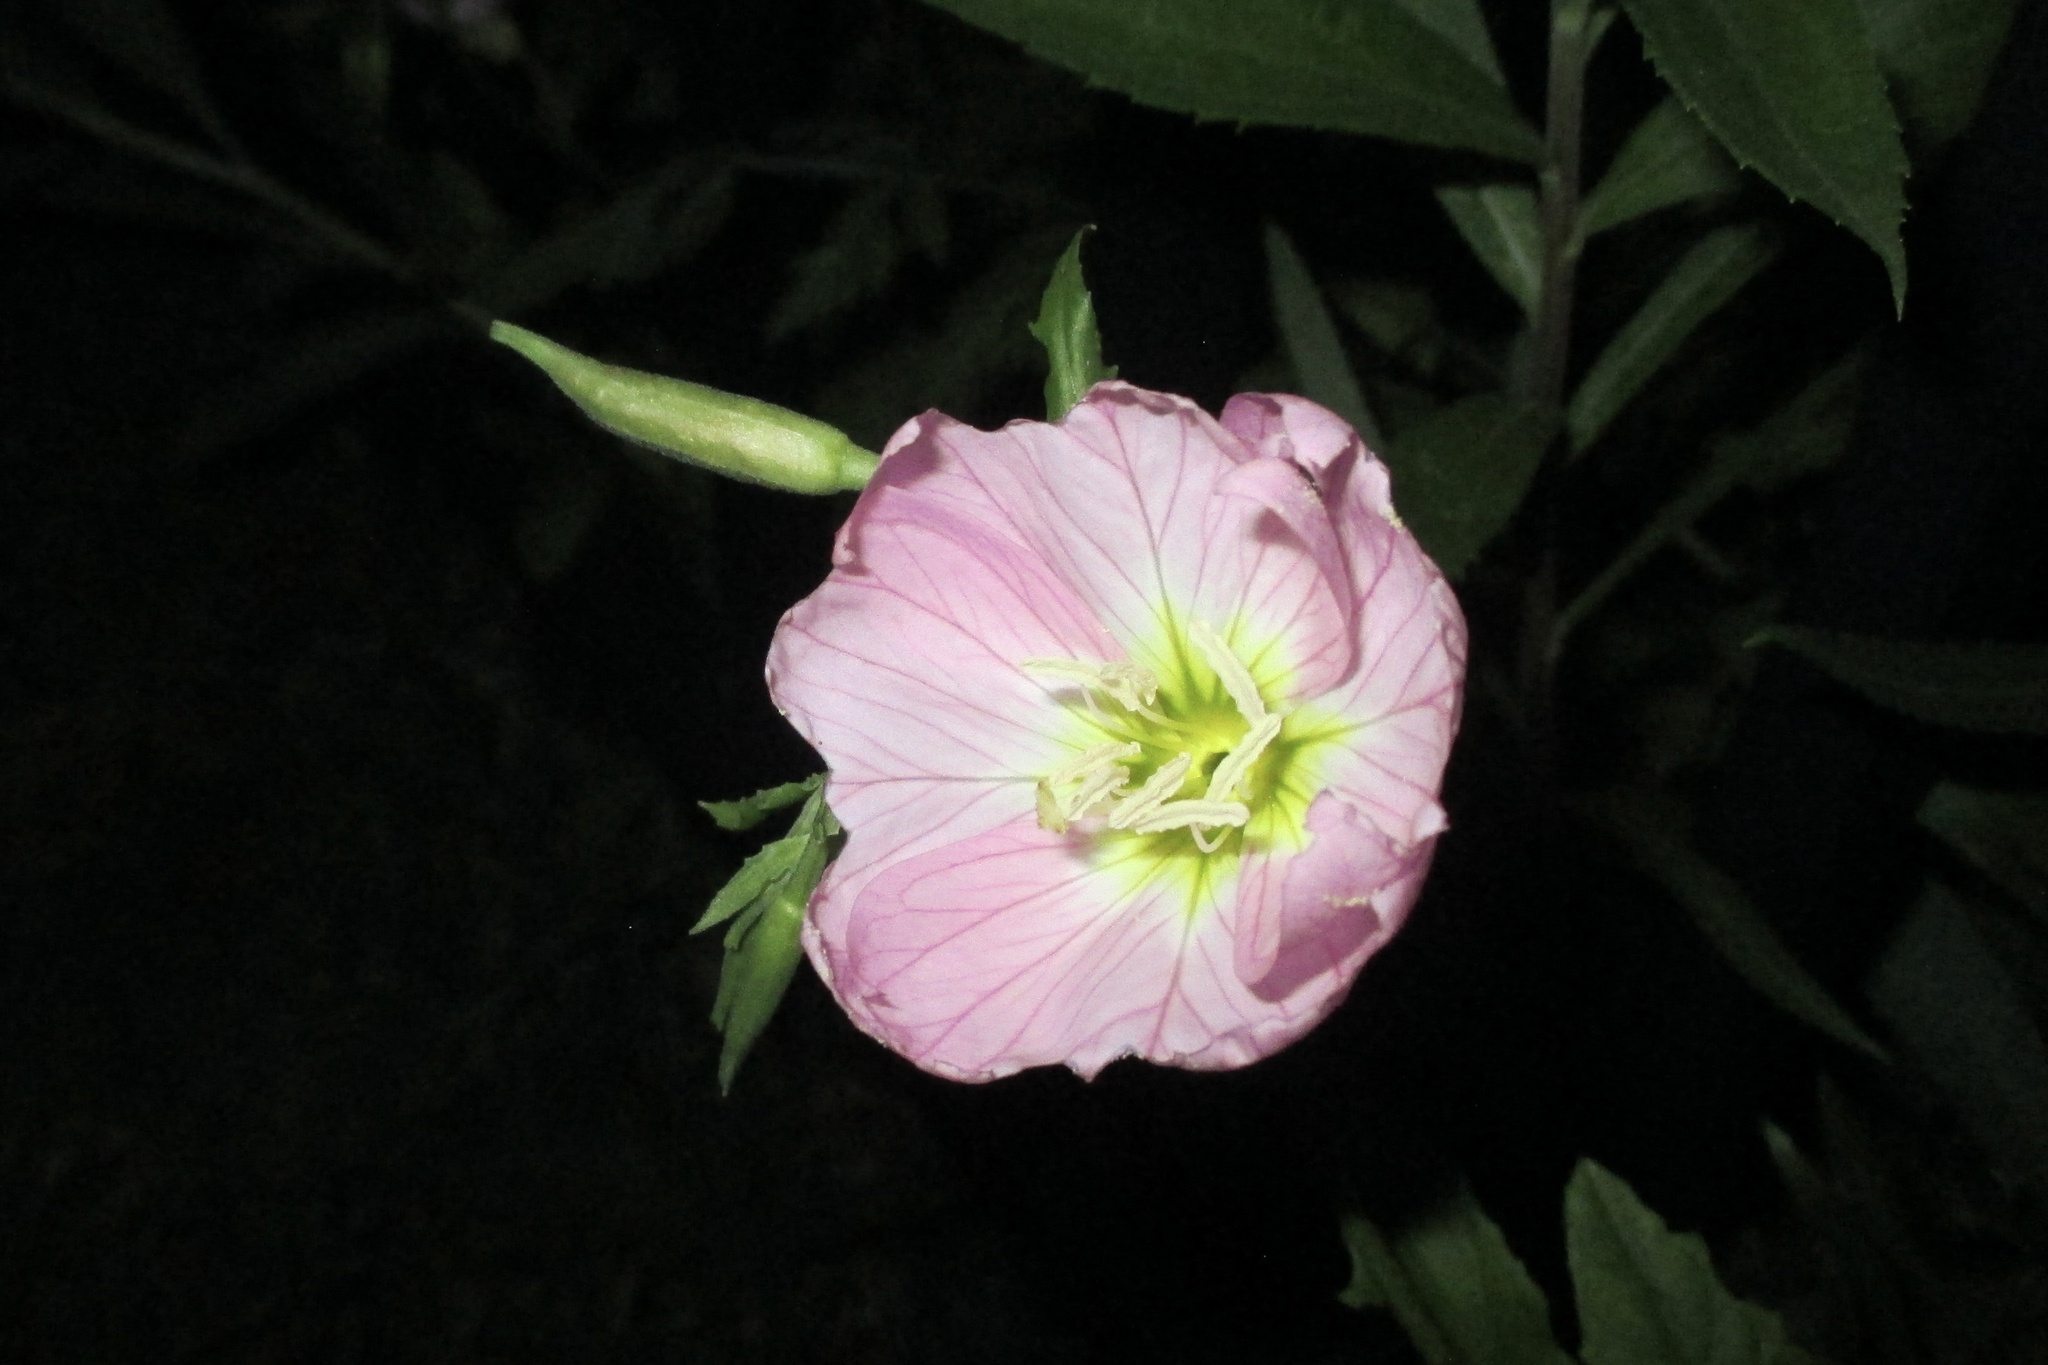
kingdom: Plantae
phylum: Tracheophyta
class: Magnoliopsida
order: Myrtales
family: Onagraceae
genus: Oenothera
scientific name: Oenothera speciosa
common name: White evening-primrose
